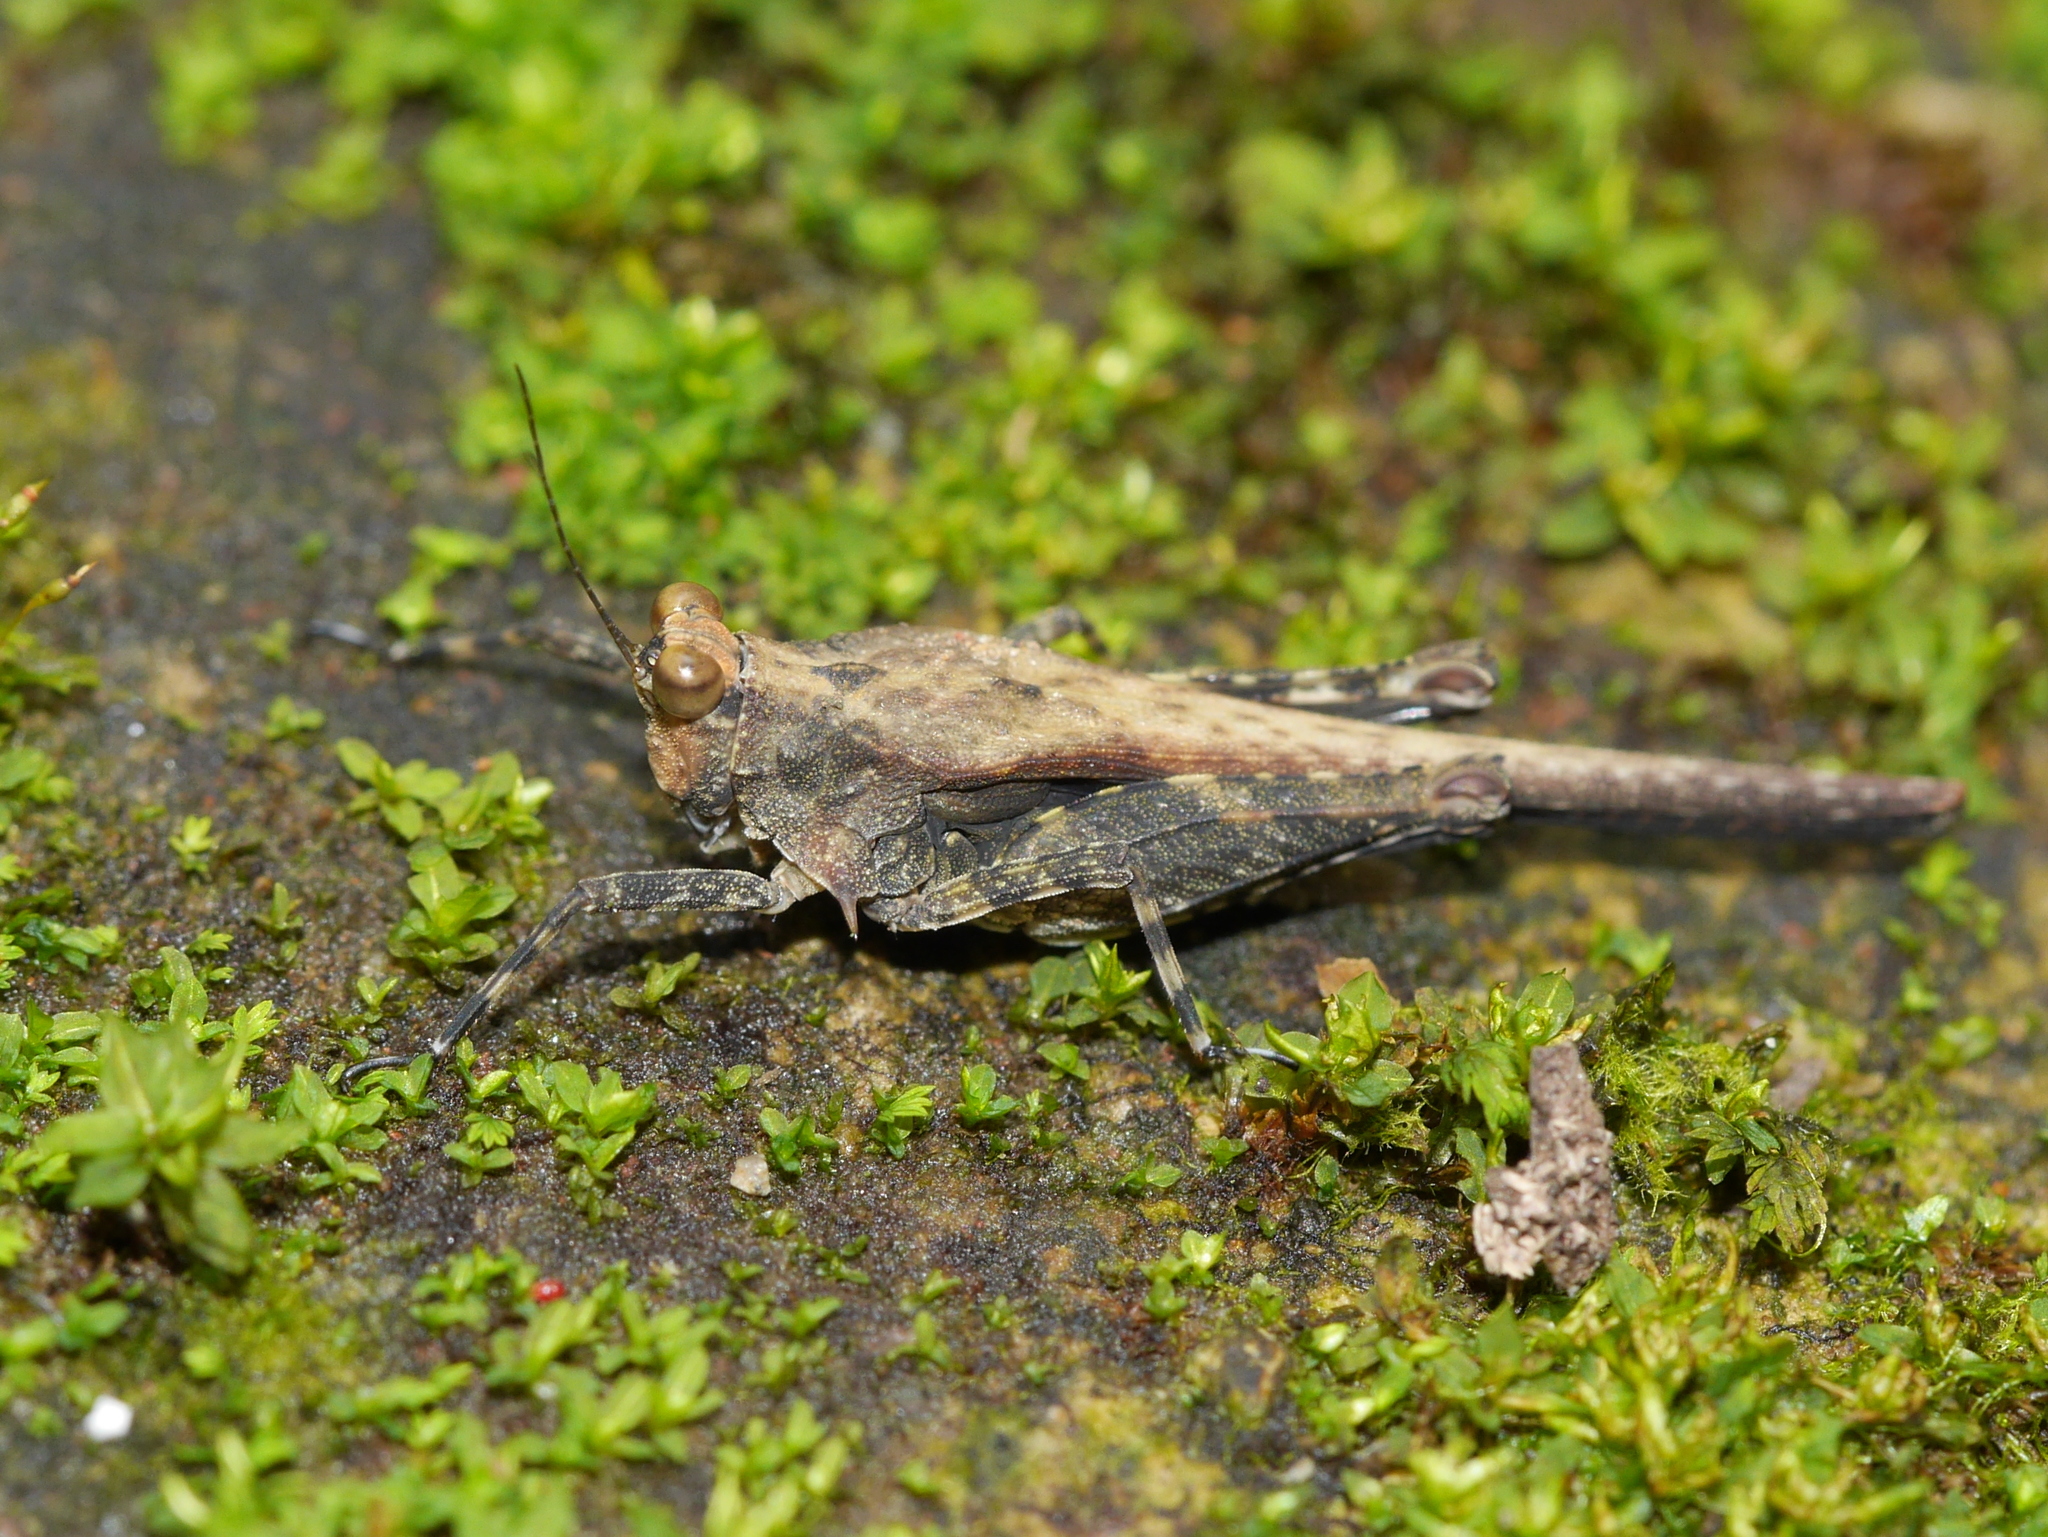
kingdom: Animalia
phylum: Arthropoda
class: Insecta
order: Orthoptera
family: Tetrigidae
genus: Criotettix
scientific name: Criotettix bispinosus
